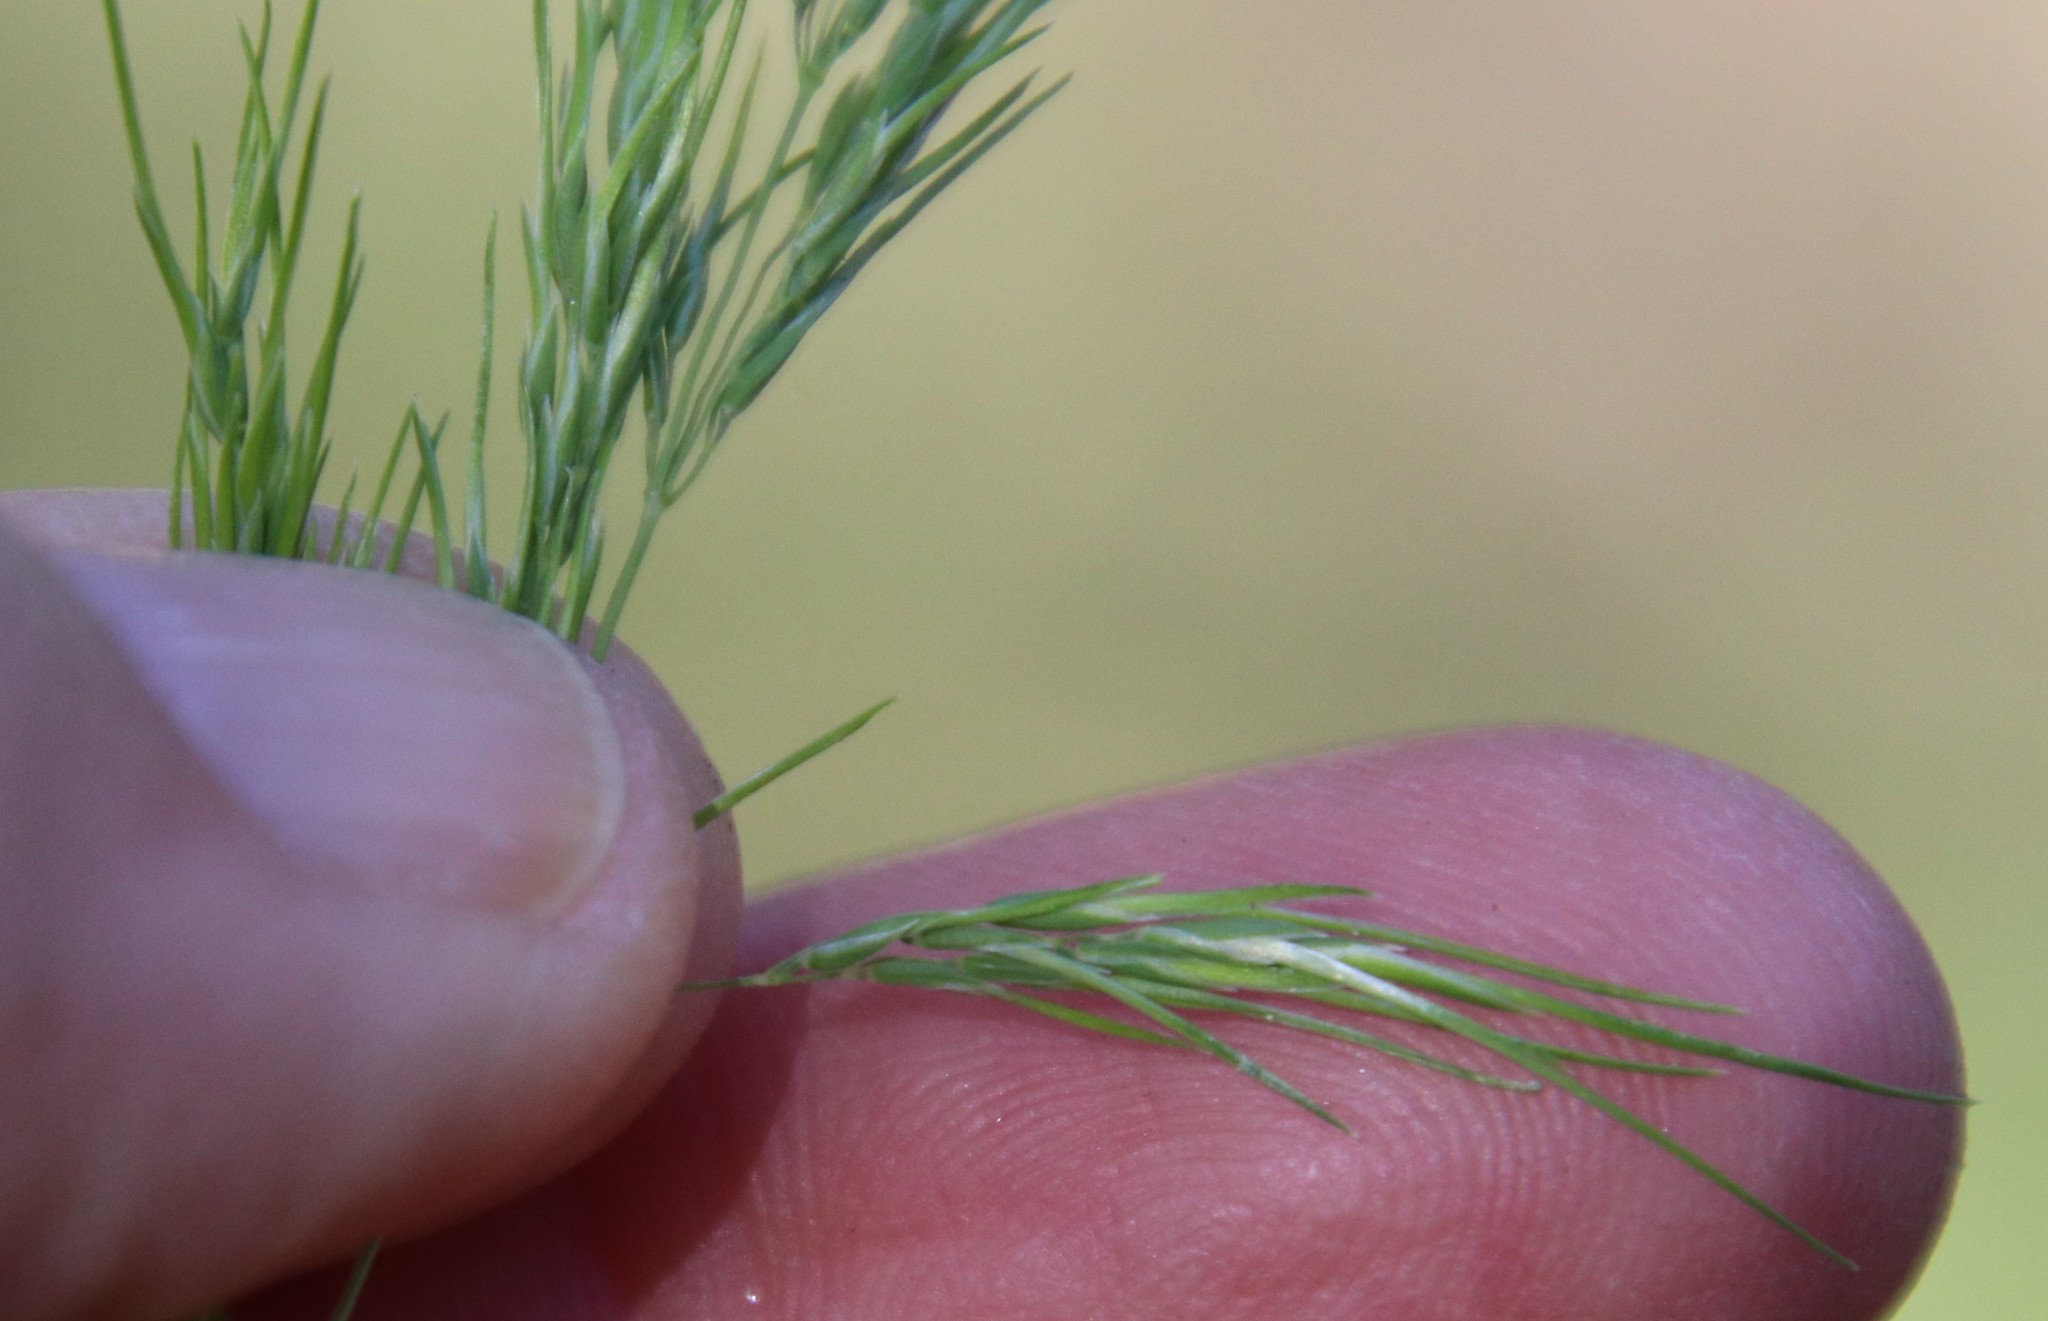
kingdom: Plantae
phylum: Tracheophyta
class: Liliopsida
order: Poales
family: Poaceae
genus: Poa
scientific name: Poa bulbosa
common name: Bulbous bluegrass
